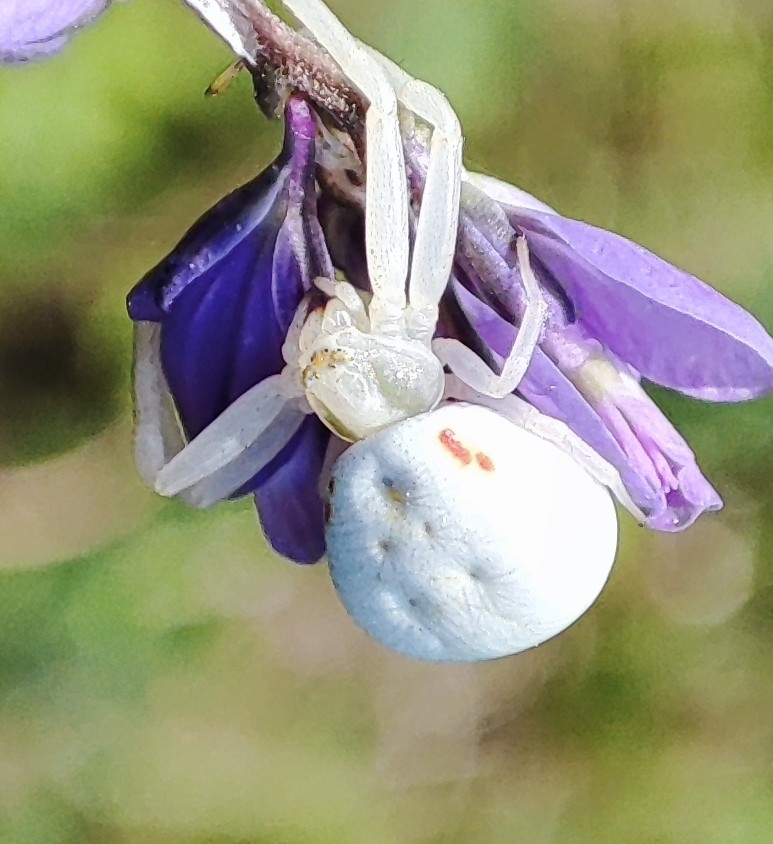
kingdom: Animalia
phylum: Arthropoda
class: Arachnida
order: Araneae
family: Thomisidae
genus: Misumena
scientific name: Misumena vatia
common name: Goldenrod crab spider
